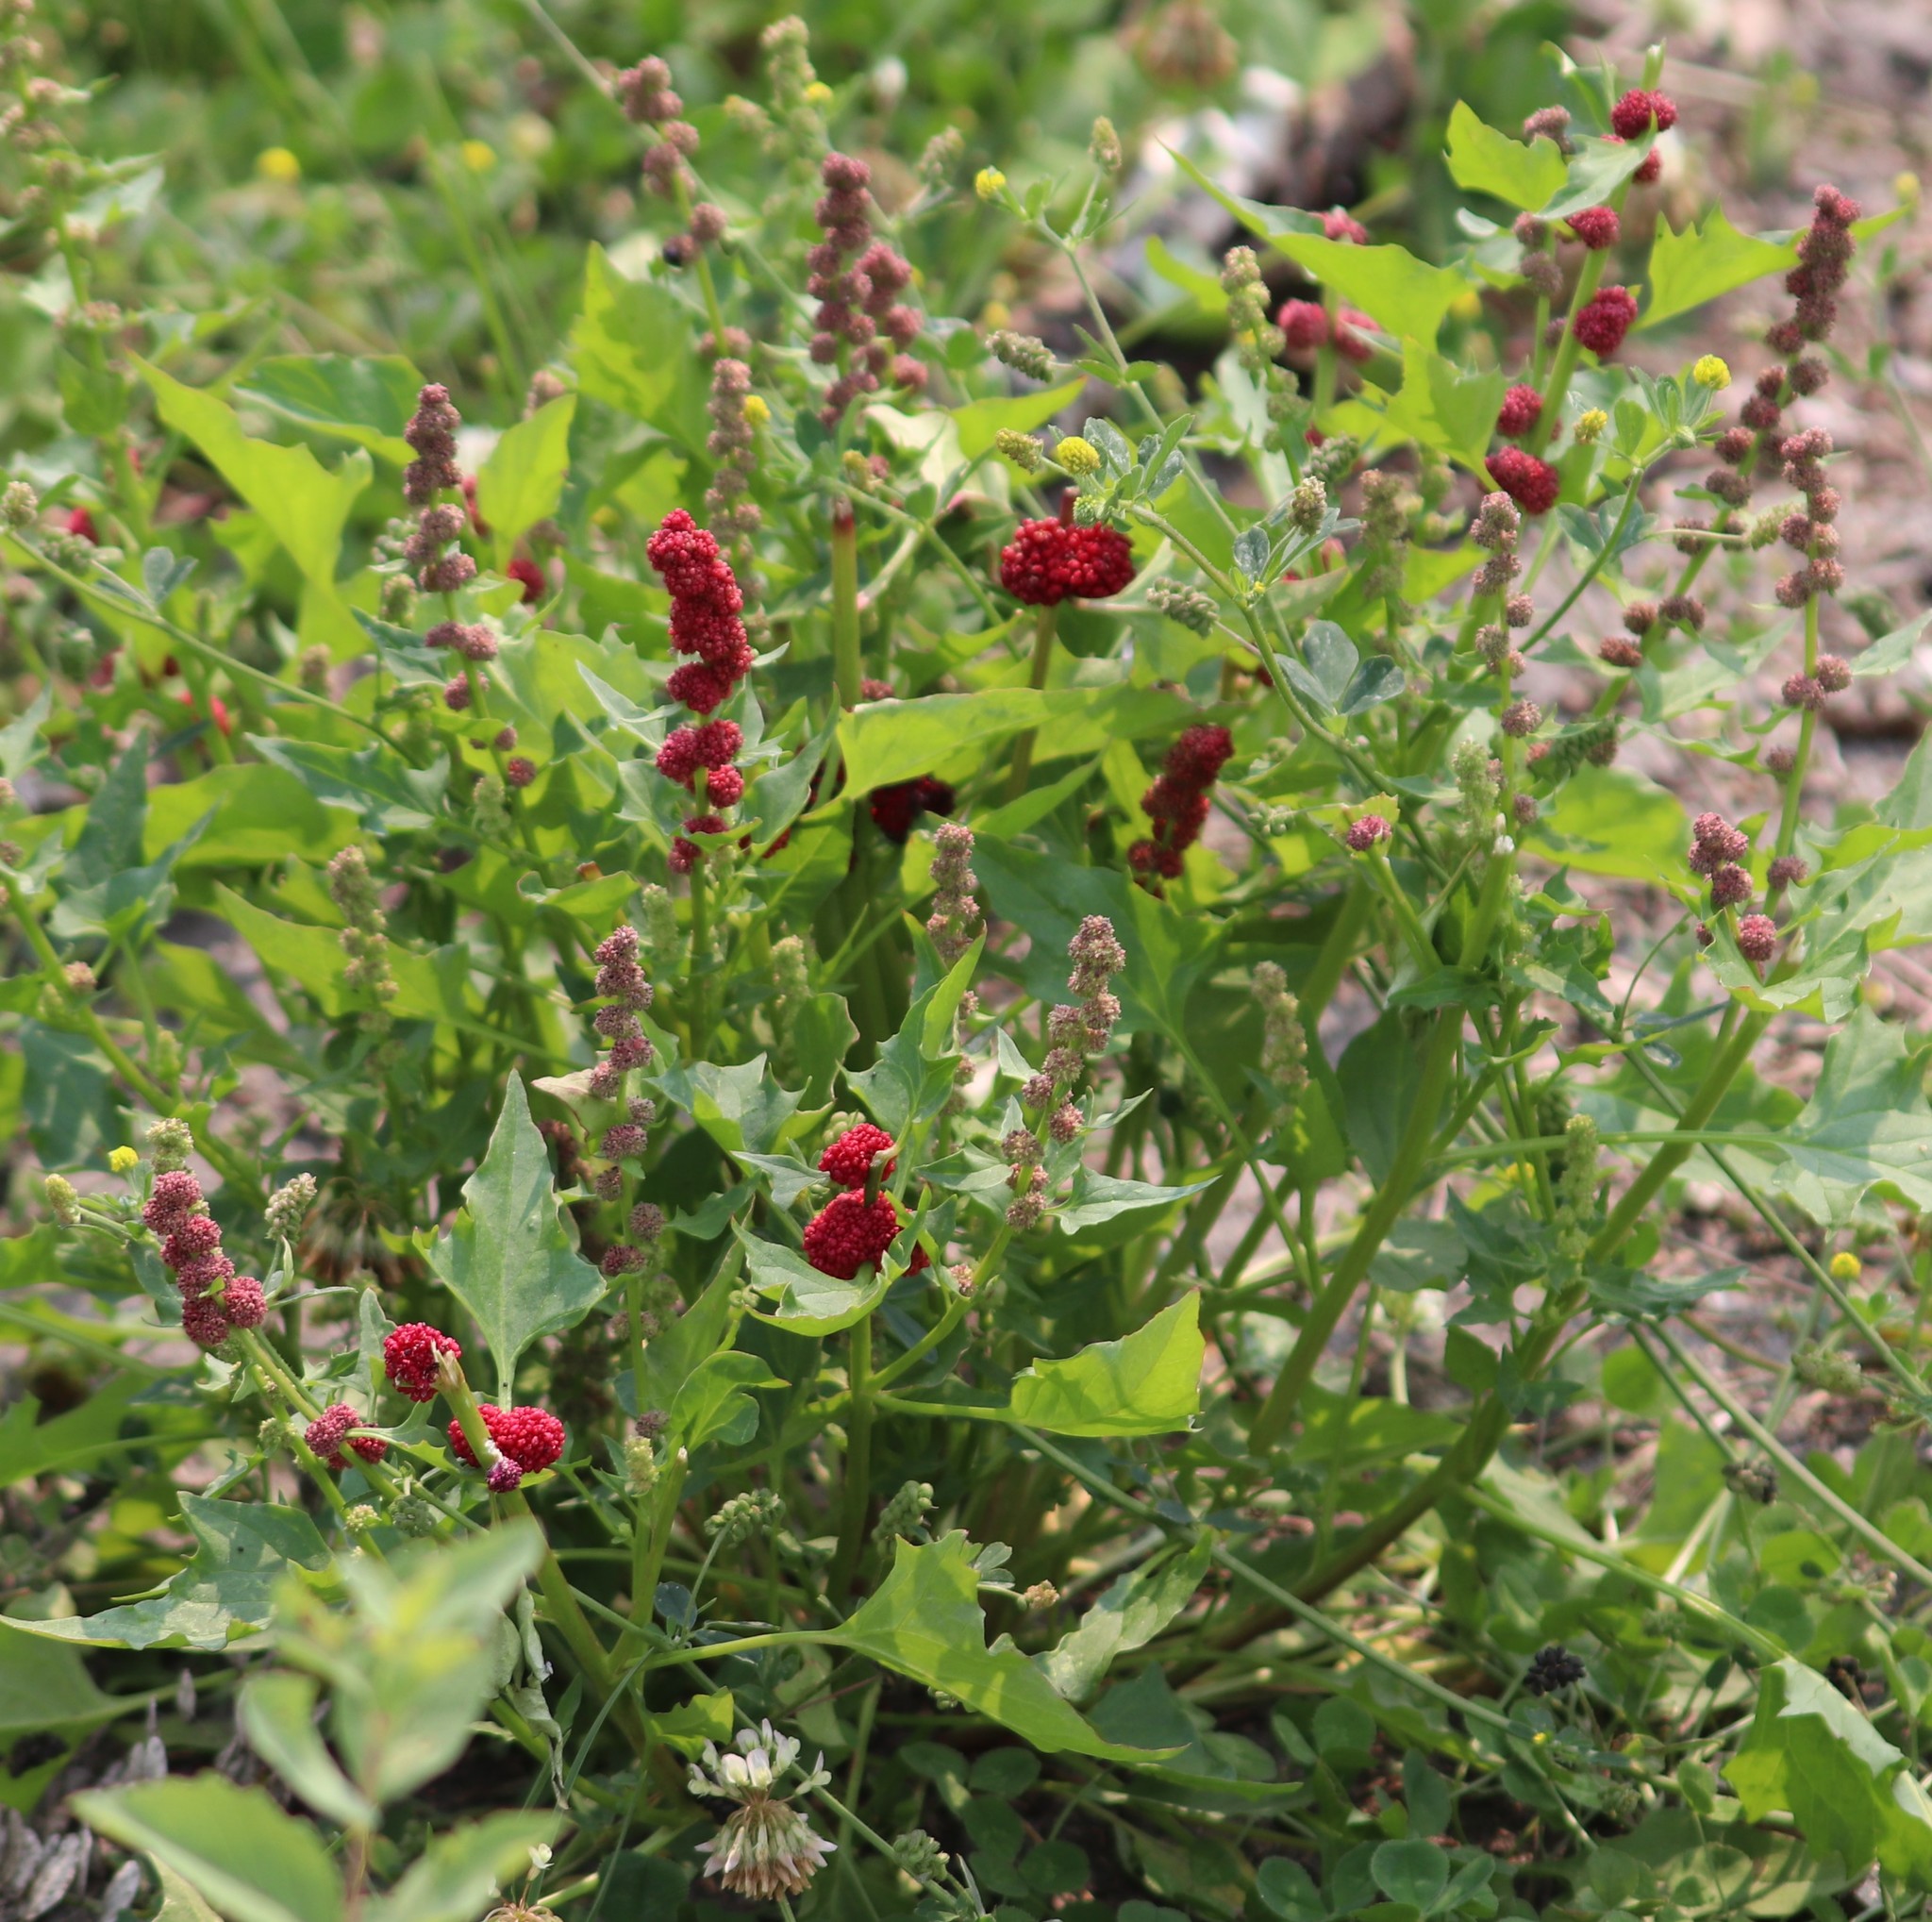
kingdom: Plantae
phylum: Tracheophyta
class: Magnoliopsida
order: Caryophyllales
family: Amaranthaceae
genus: Blitum
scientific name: Blitum capitatum
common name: Strawberry-blight
